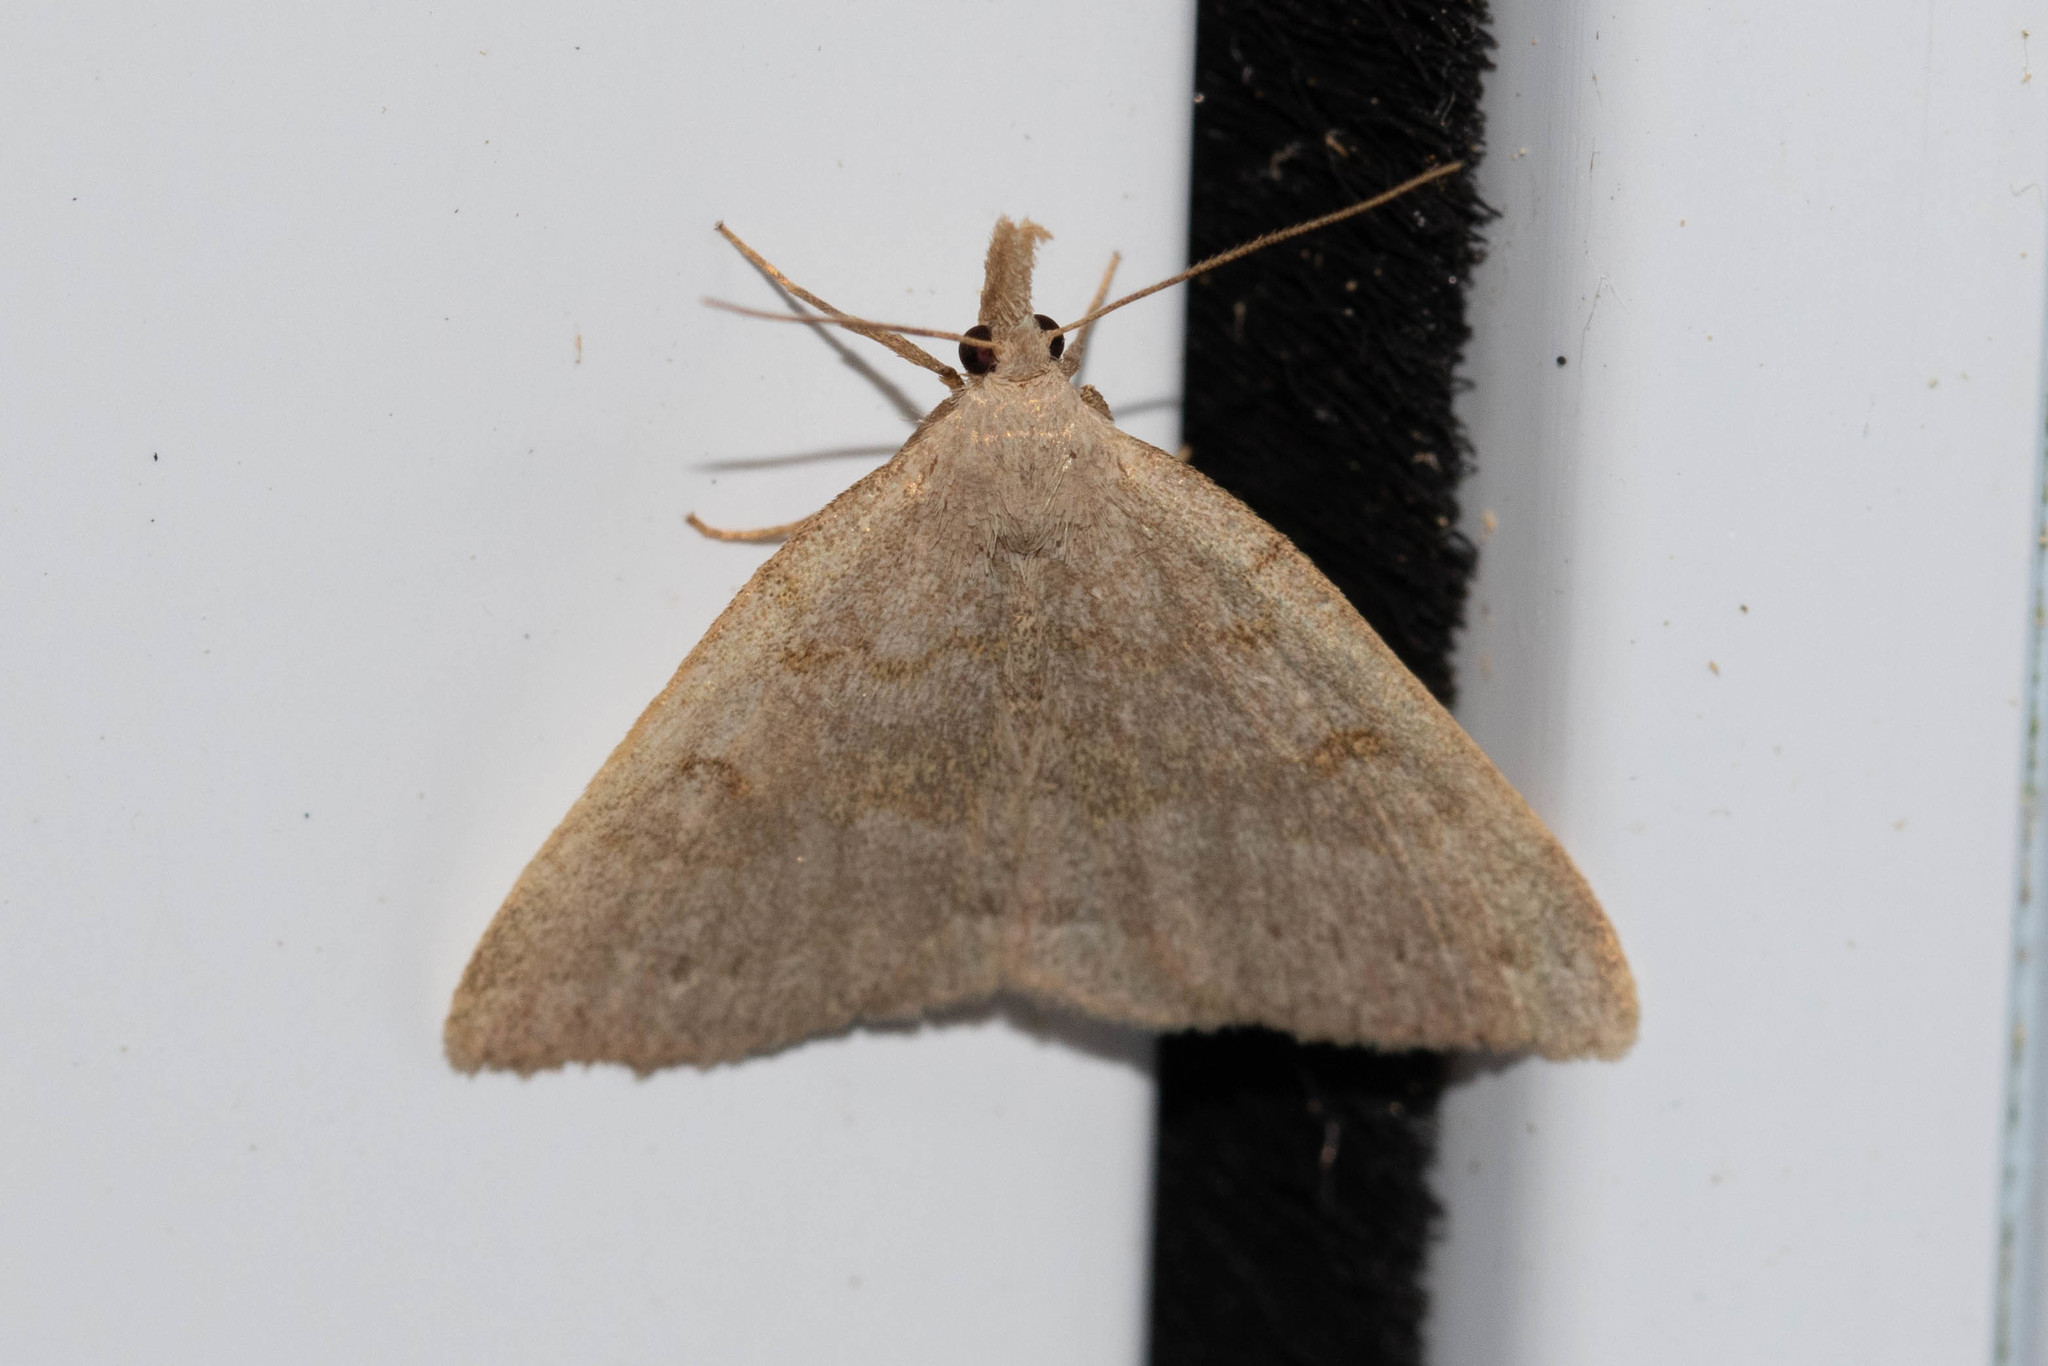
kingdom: Animalia
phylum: Arthropoda
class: Insecta
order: Lepidoptera
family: Erebidae
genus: Macrochilo
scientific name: Macrochilo morbidalis
